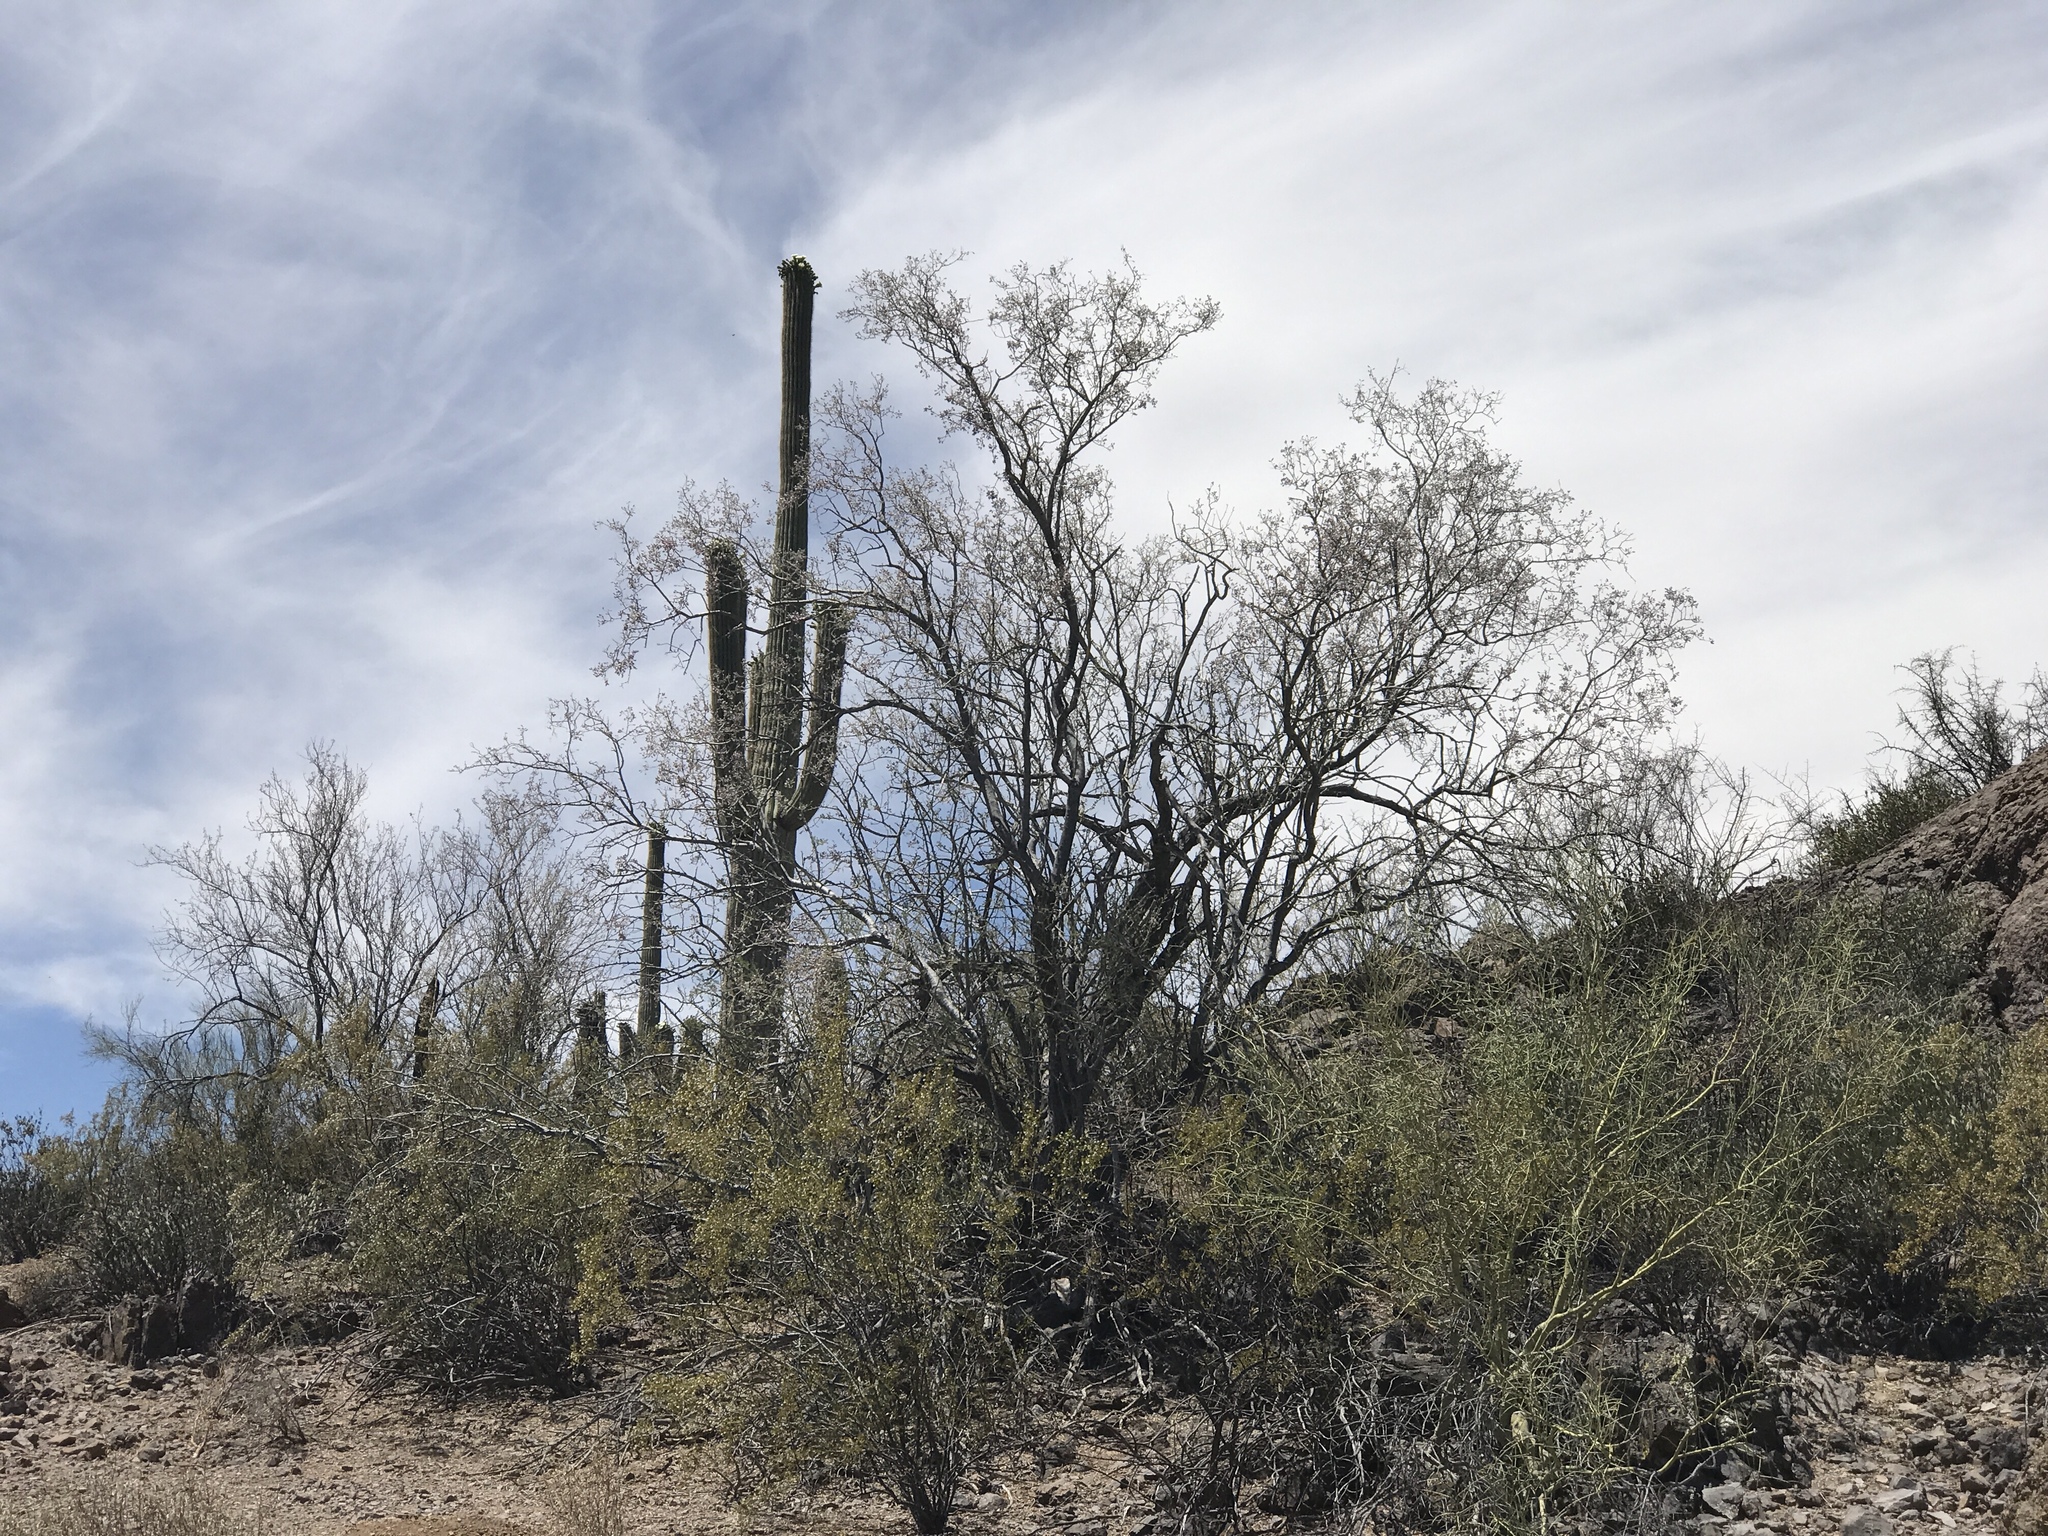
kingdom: Plantae
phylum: Tracheophyta
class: Magnoliopsida
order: Fabales
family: Fabaceae
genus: Olneya
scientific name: Olneya tesota
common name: Desert ironwood
